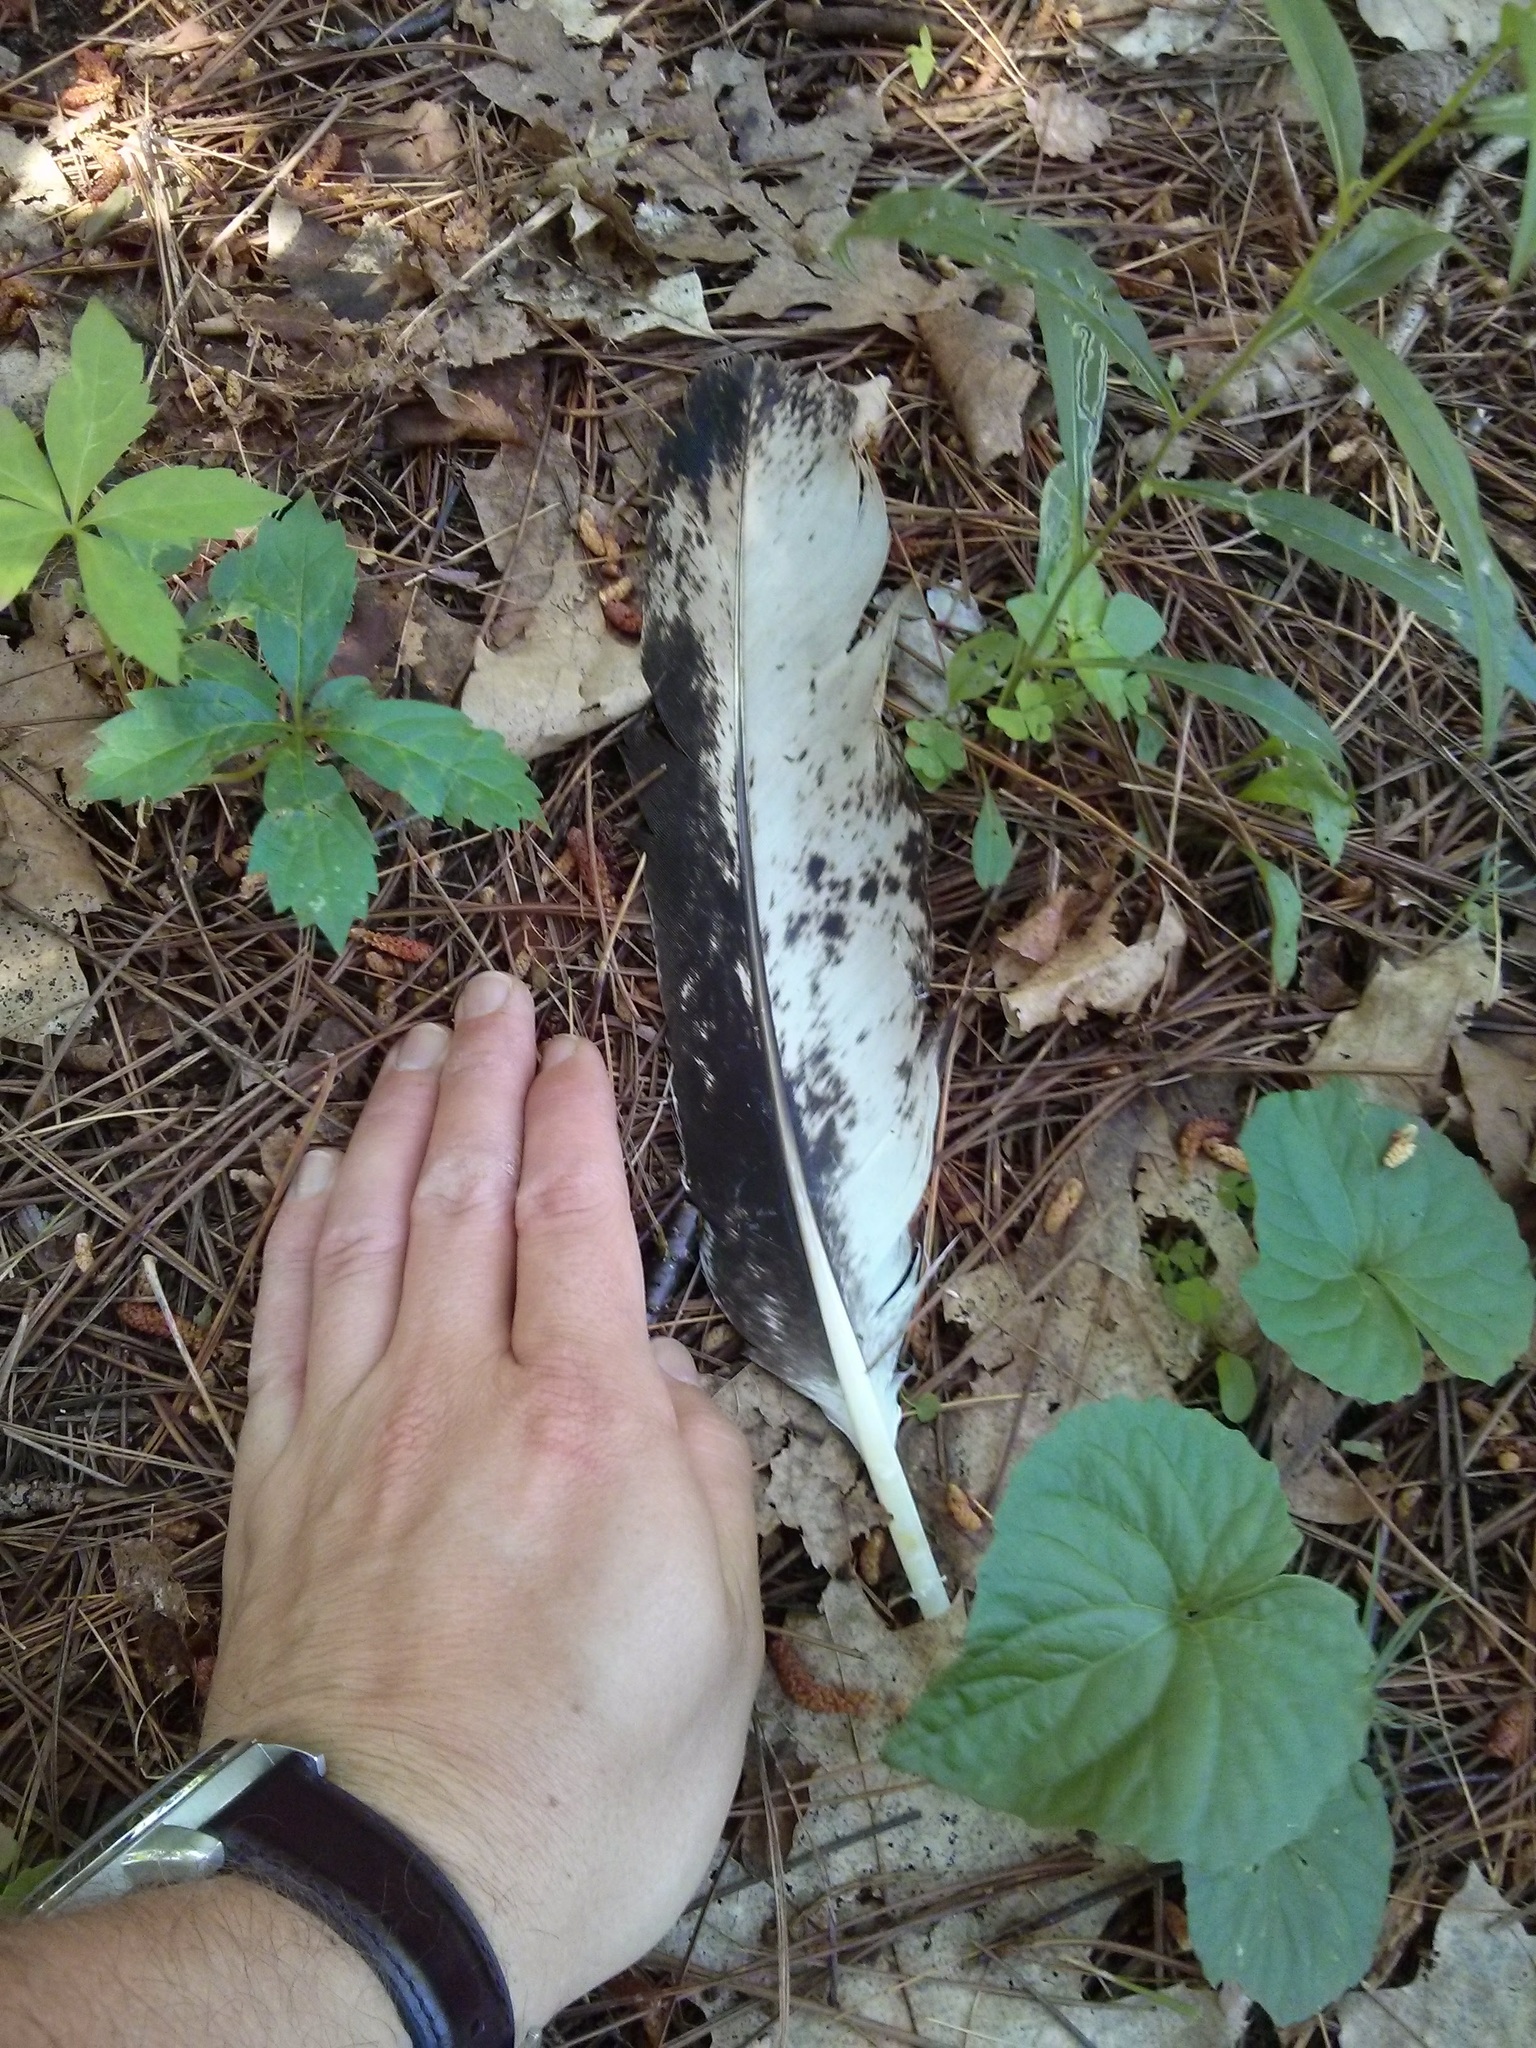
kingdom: Animalia
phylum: Chordata
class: Aves
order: Accipitriformes
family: Accipitridae
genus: Haliaeetus
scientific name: Haliaeetus leucocephalus
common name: Bald eagle
